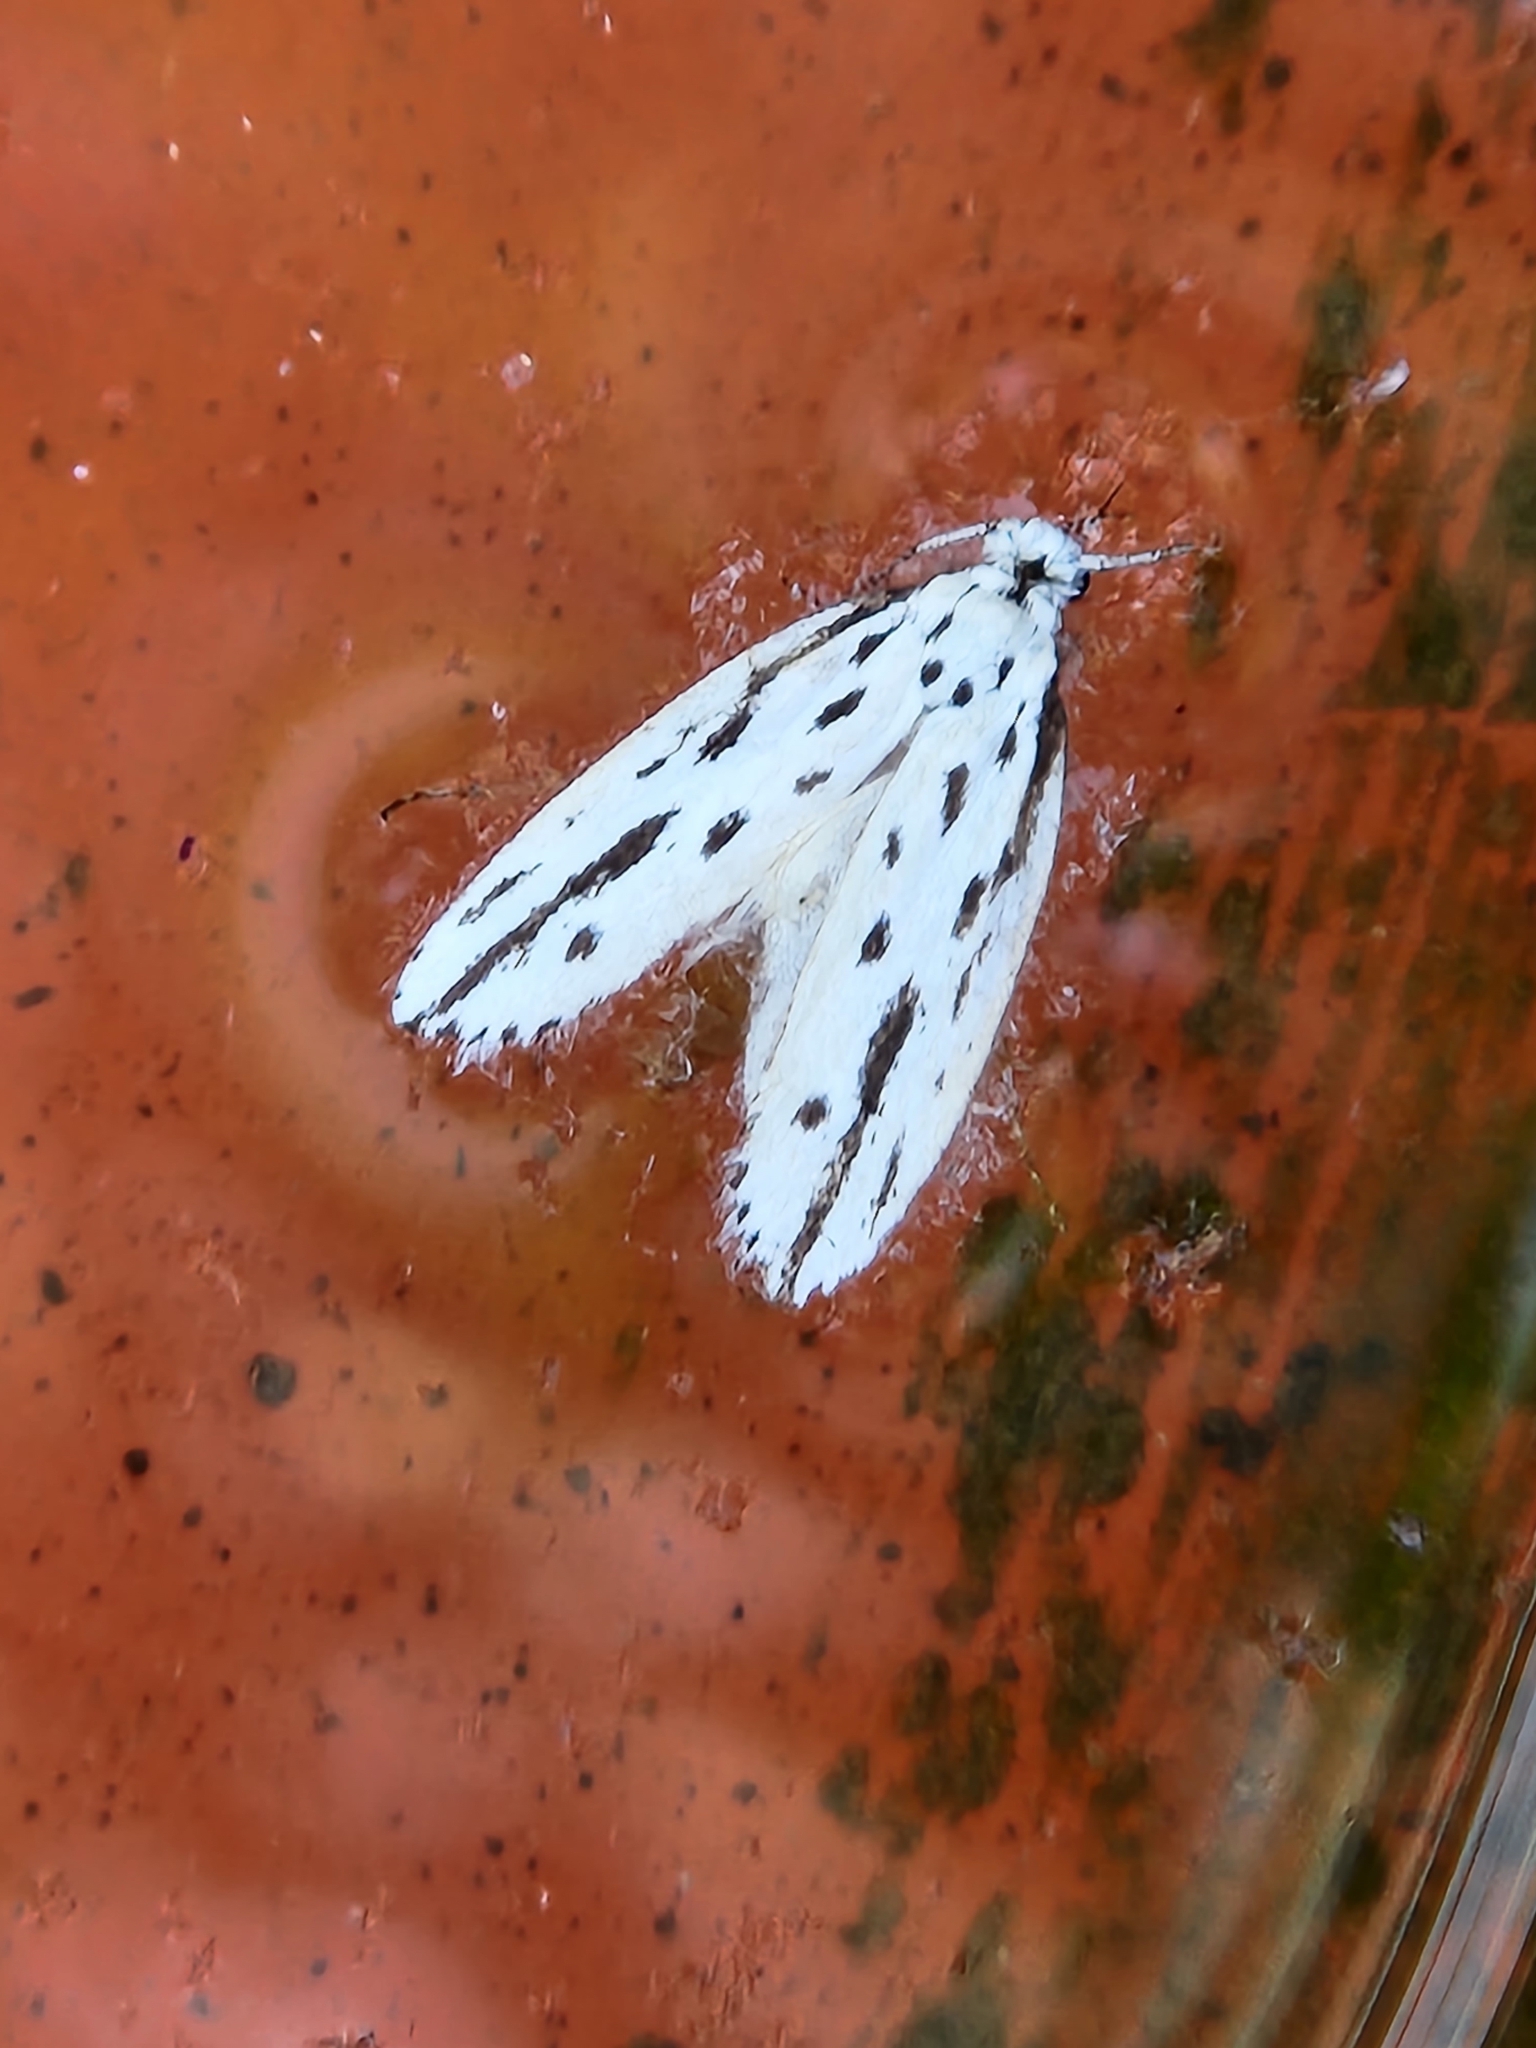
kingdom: Animalia
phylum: Arthropoda
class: Insecta
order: Lepidoptera
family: Ethmiidae
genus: Ethmia
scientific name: Ethmia longimaculella
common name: Streaked ethmia moth
